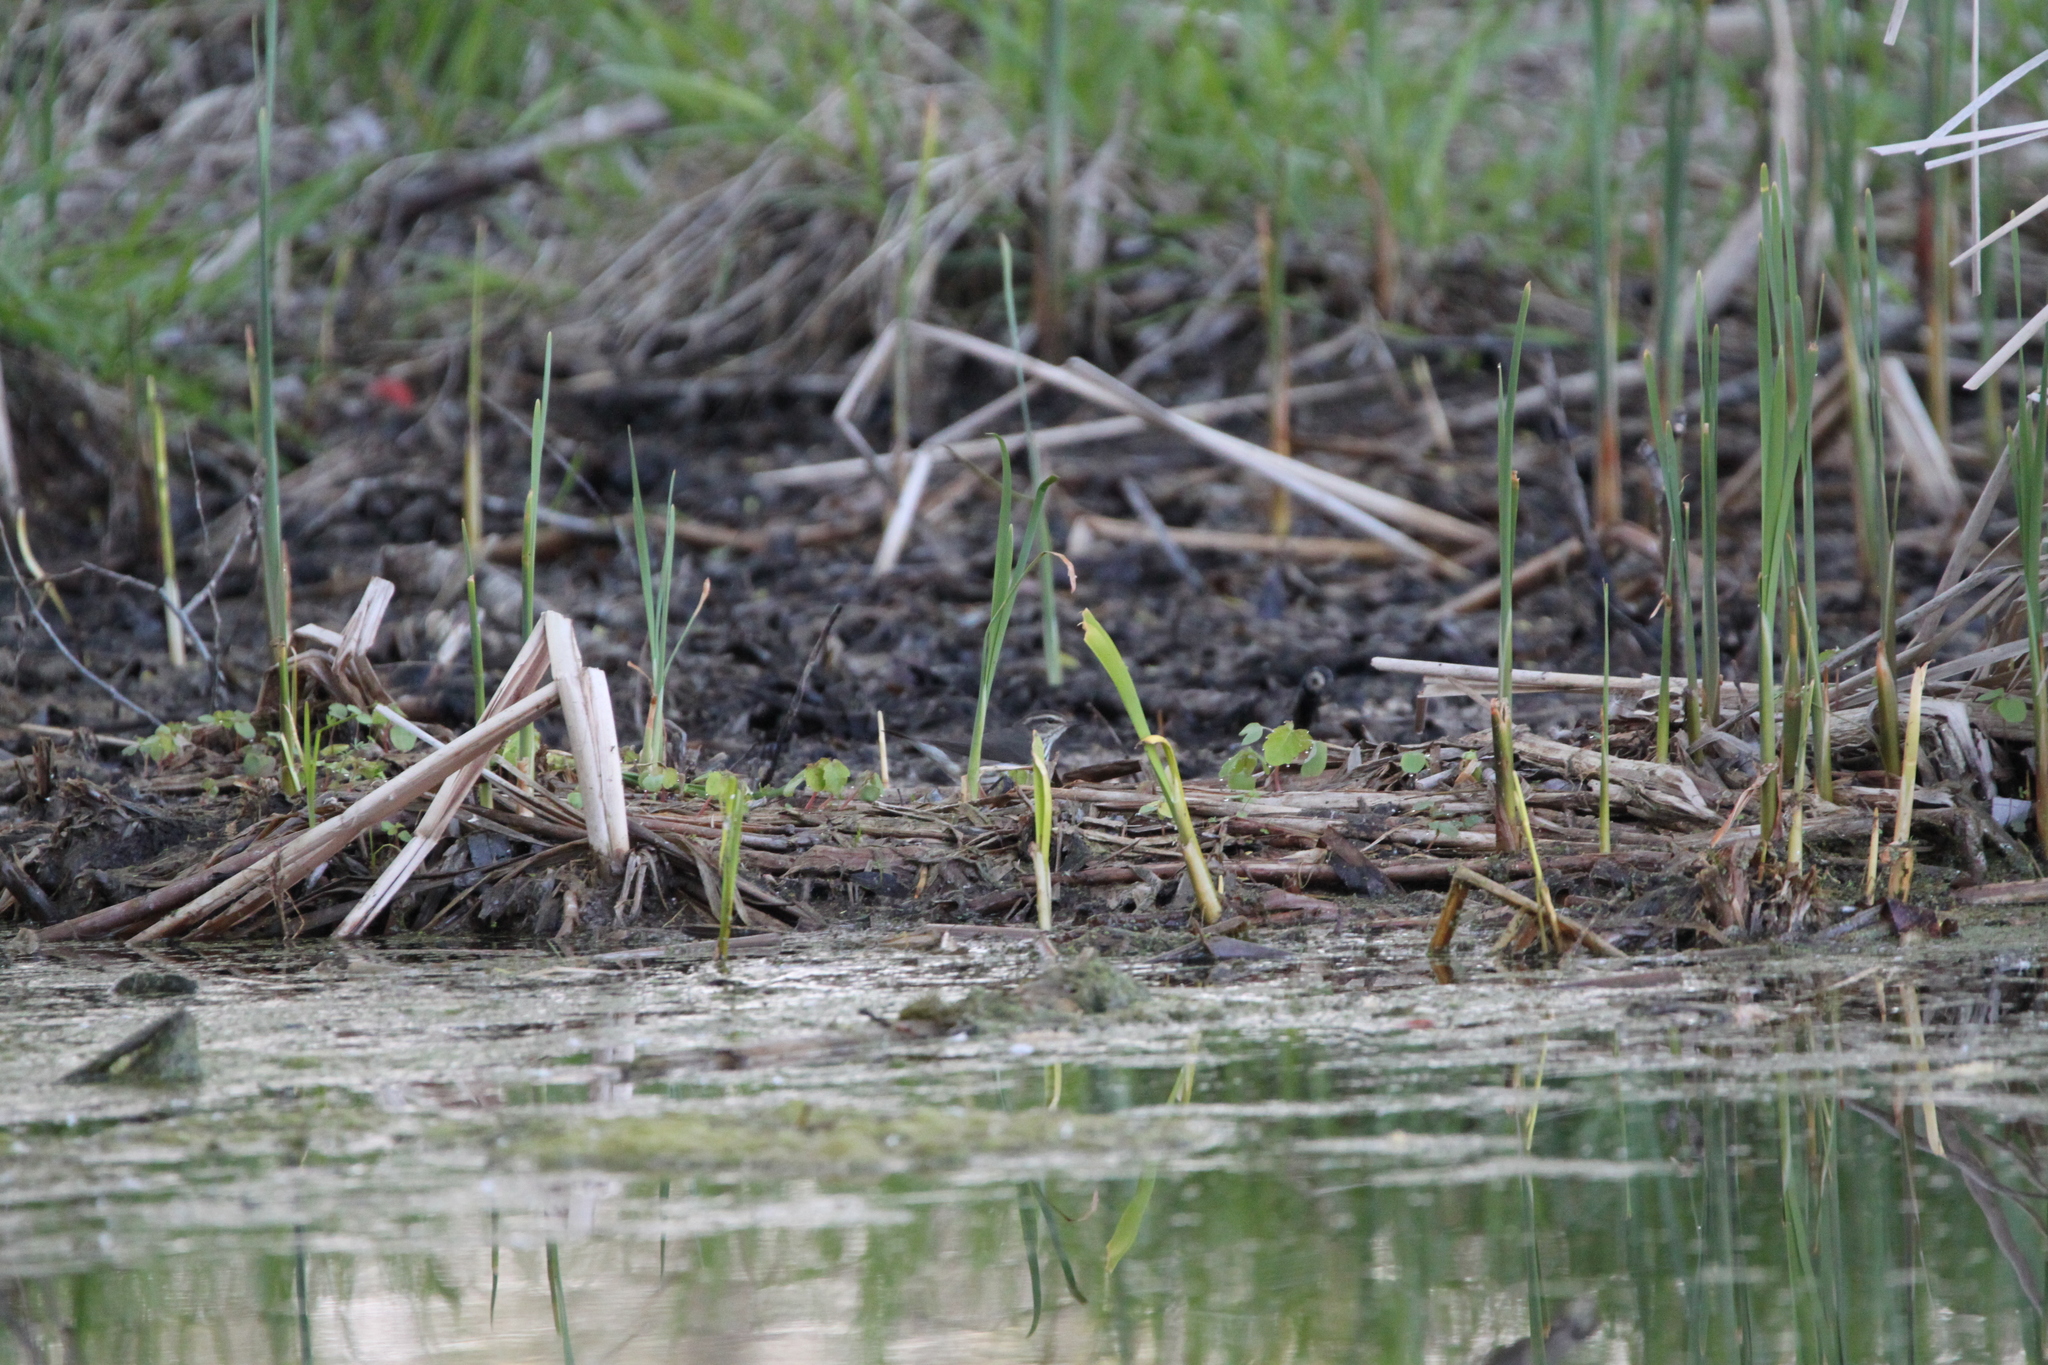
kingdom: Animalia
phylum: Chordata
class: Aves
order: Passeriformes
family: Parulidae
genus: Parkesia
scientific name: Parkesia noveboracensis
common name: Northern waterthrush
